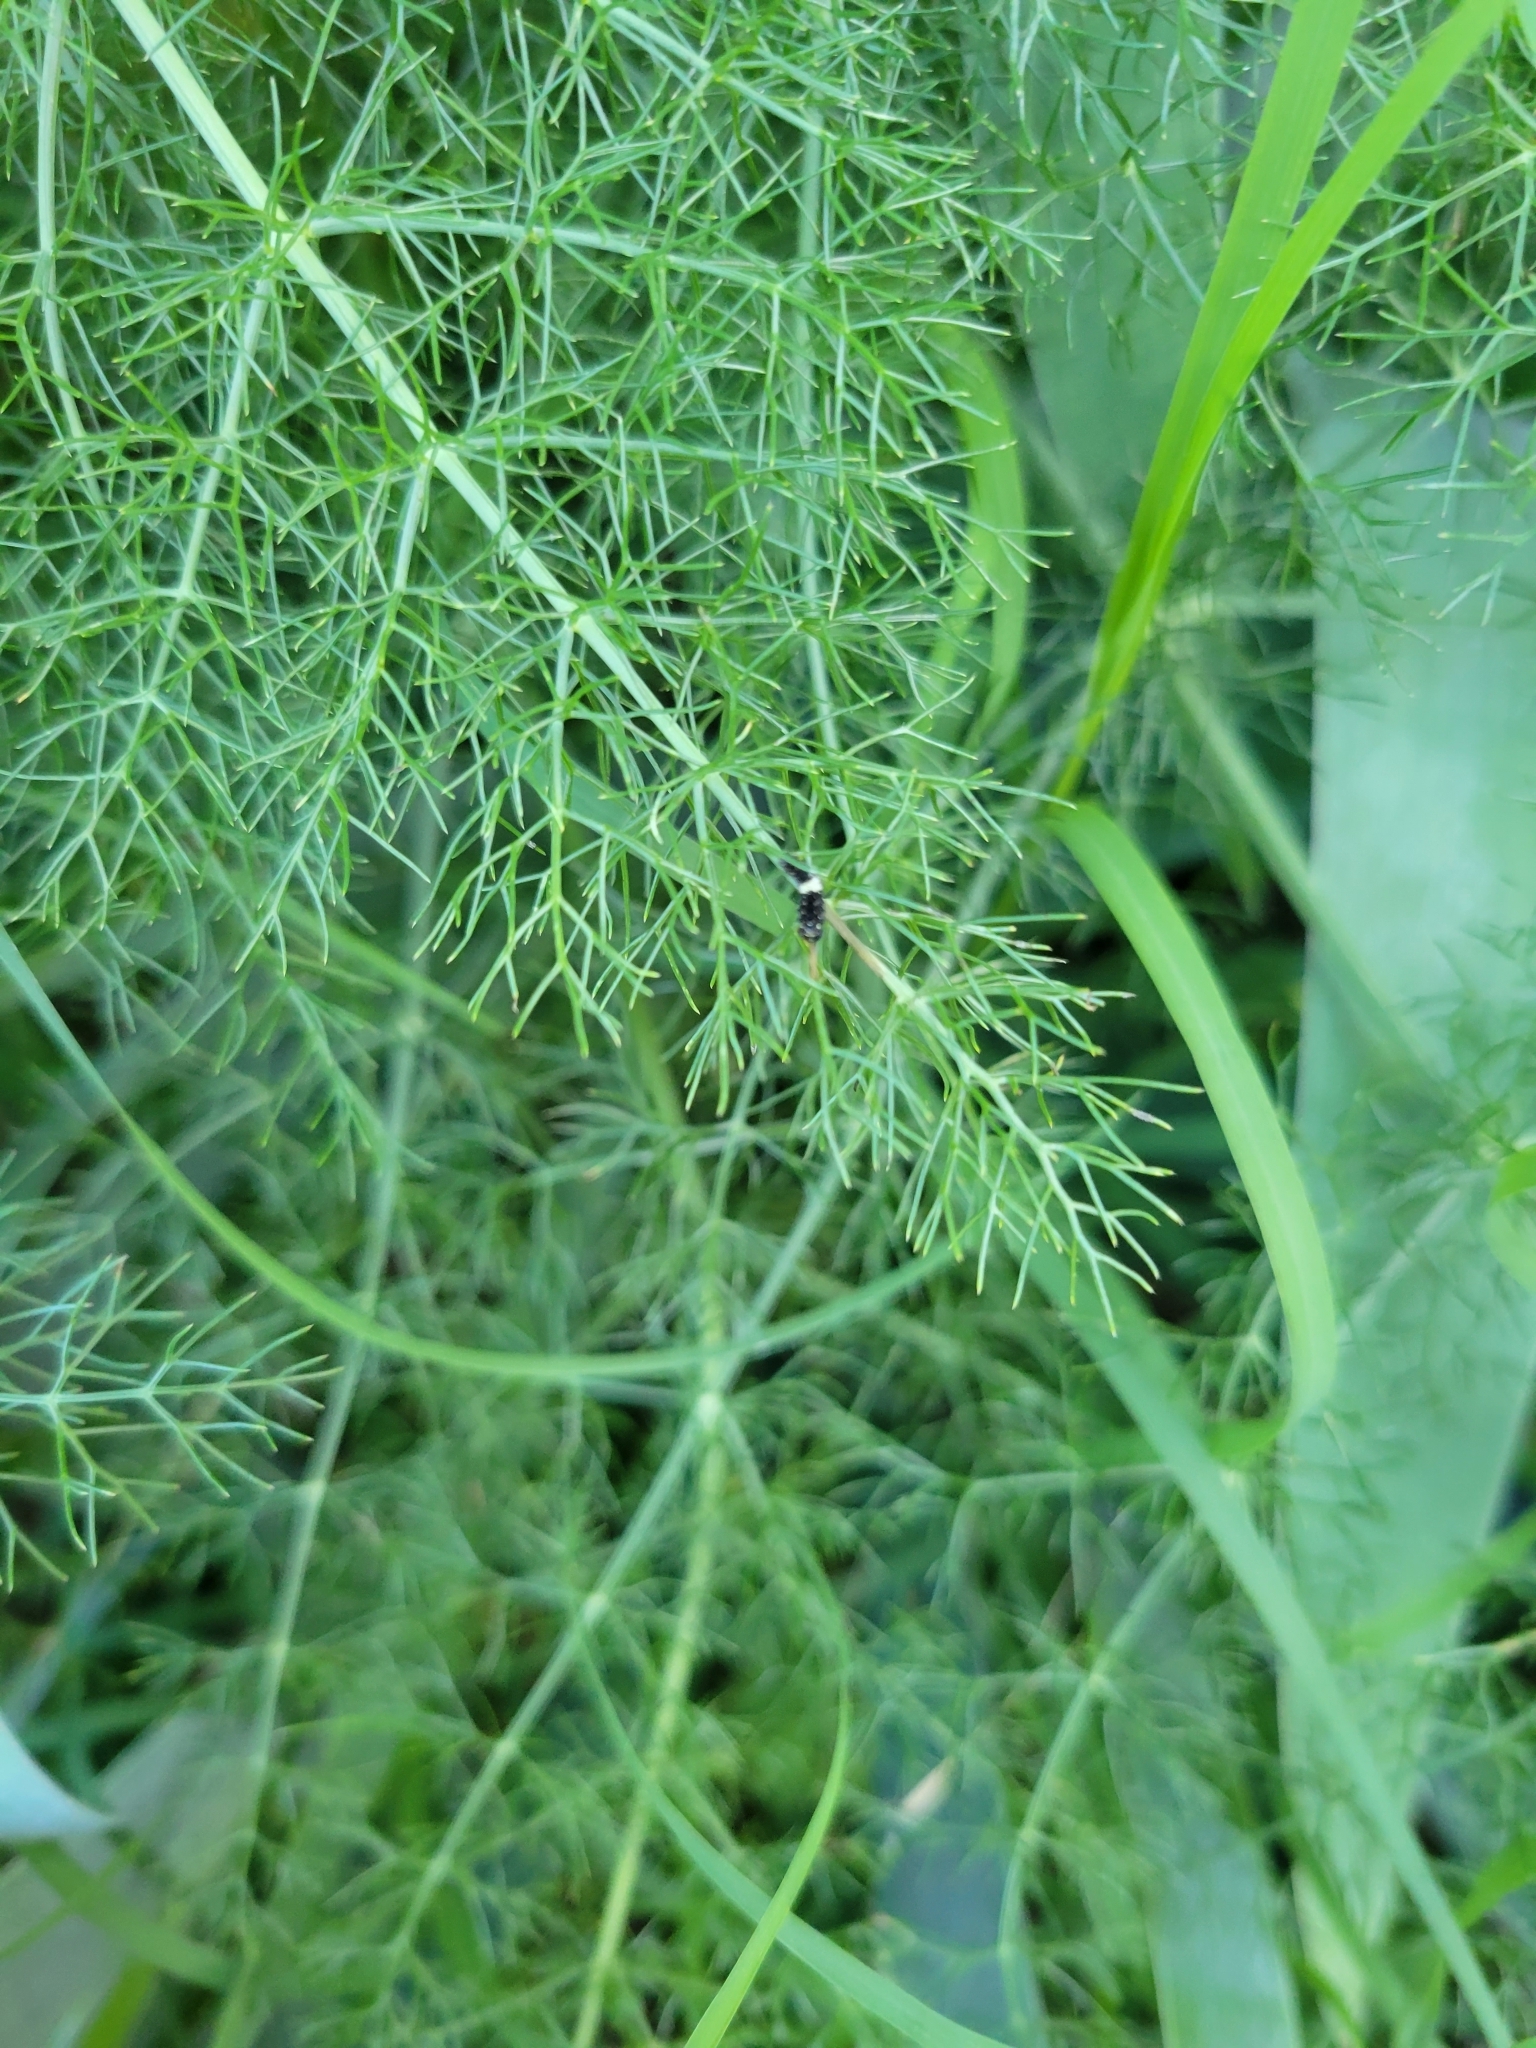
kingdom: Plantae
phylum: Tracheophyta
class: Magnoliopsida
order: Apiales
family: Apiaceae
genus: Foeniculum
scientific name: Foeniculum vulgare
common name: Fennel
